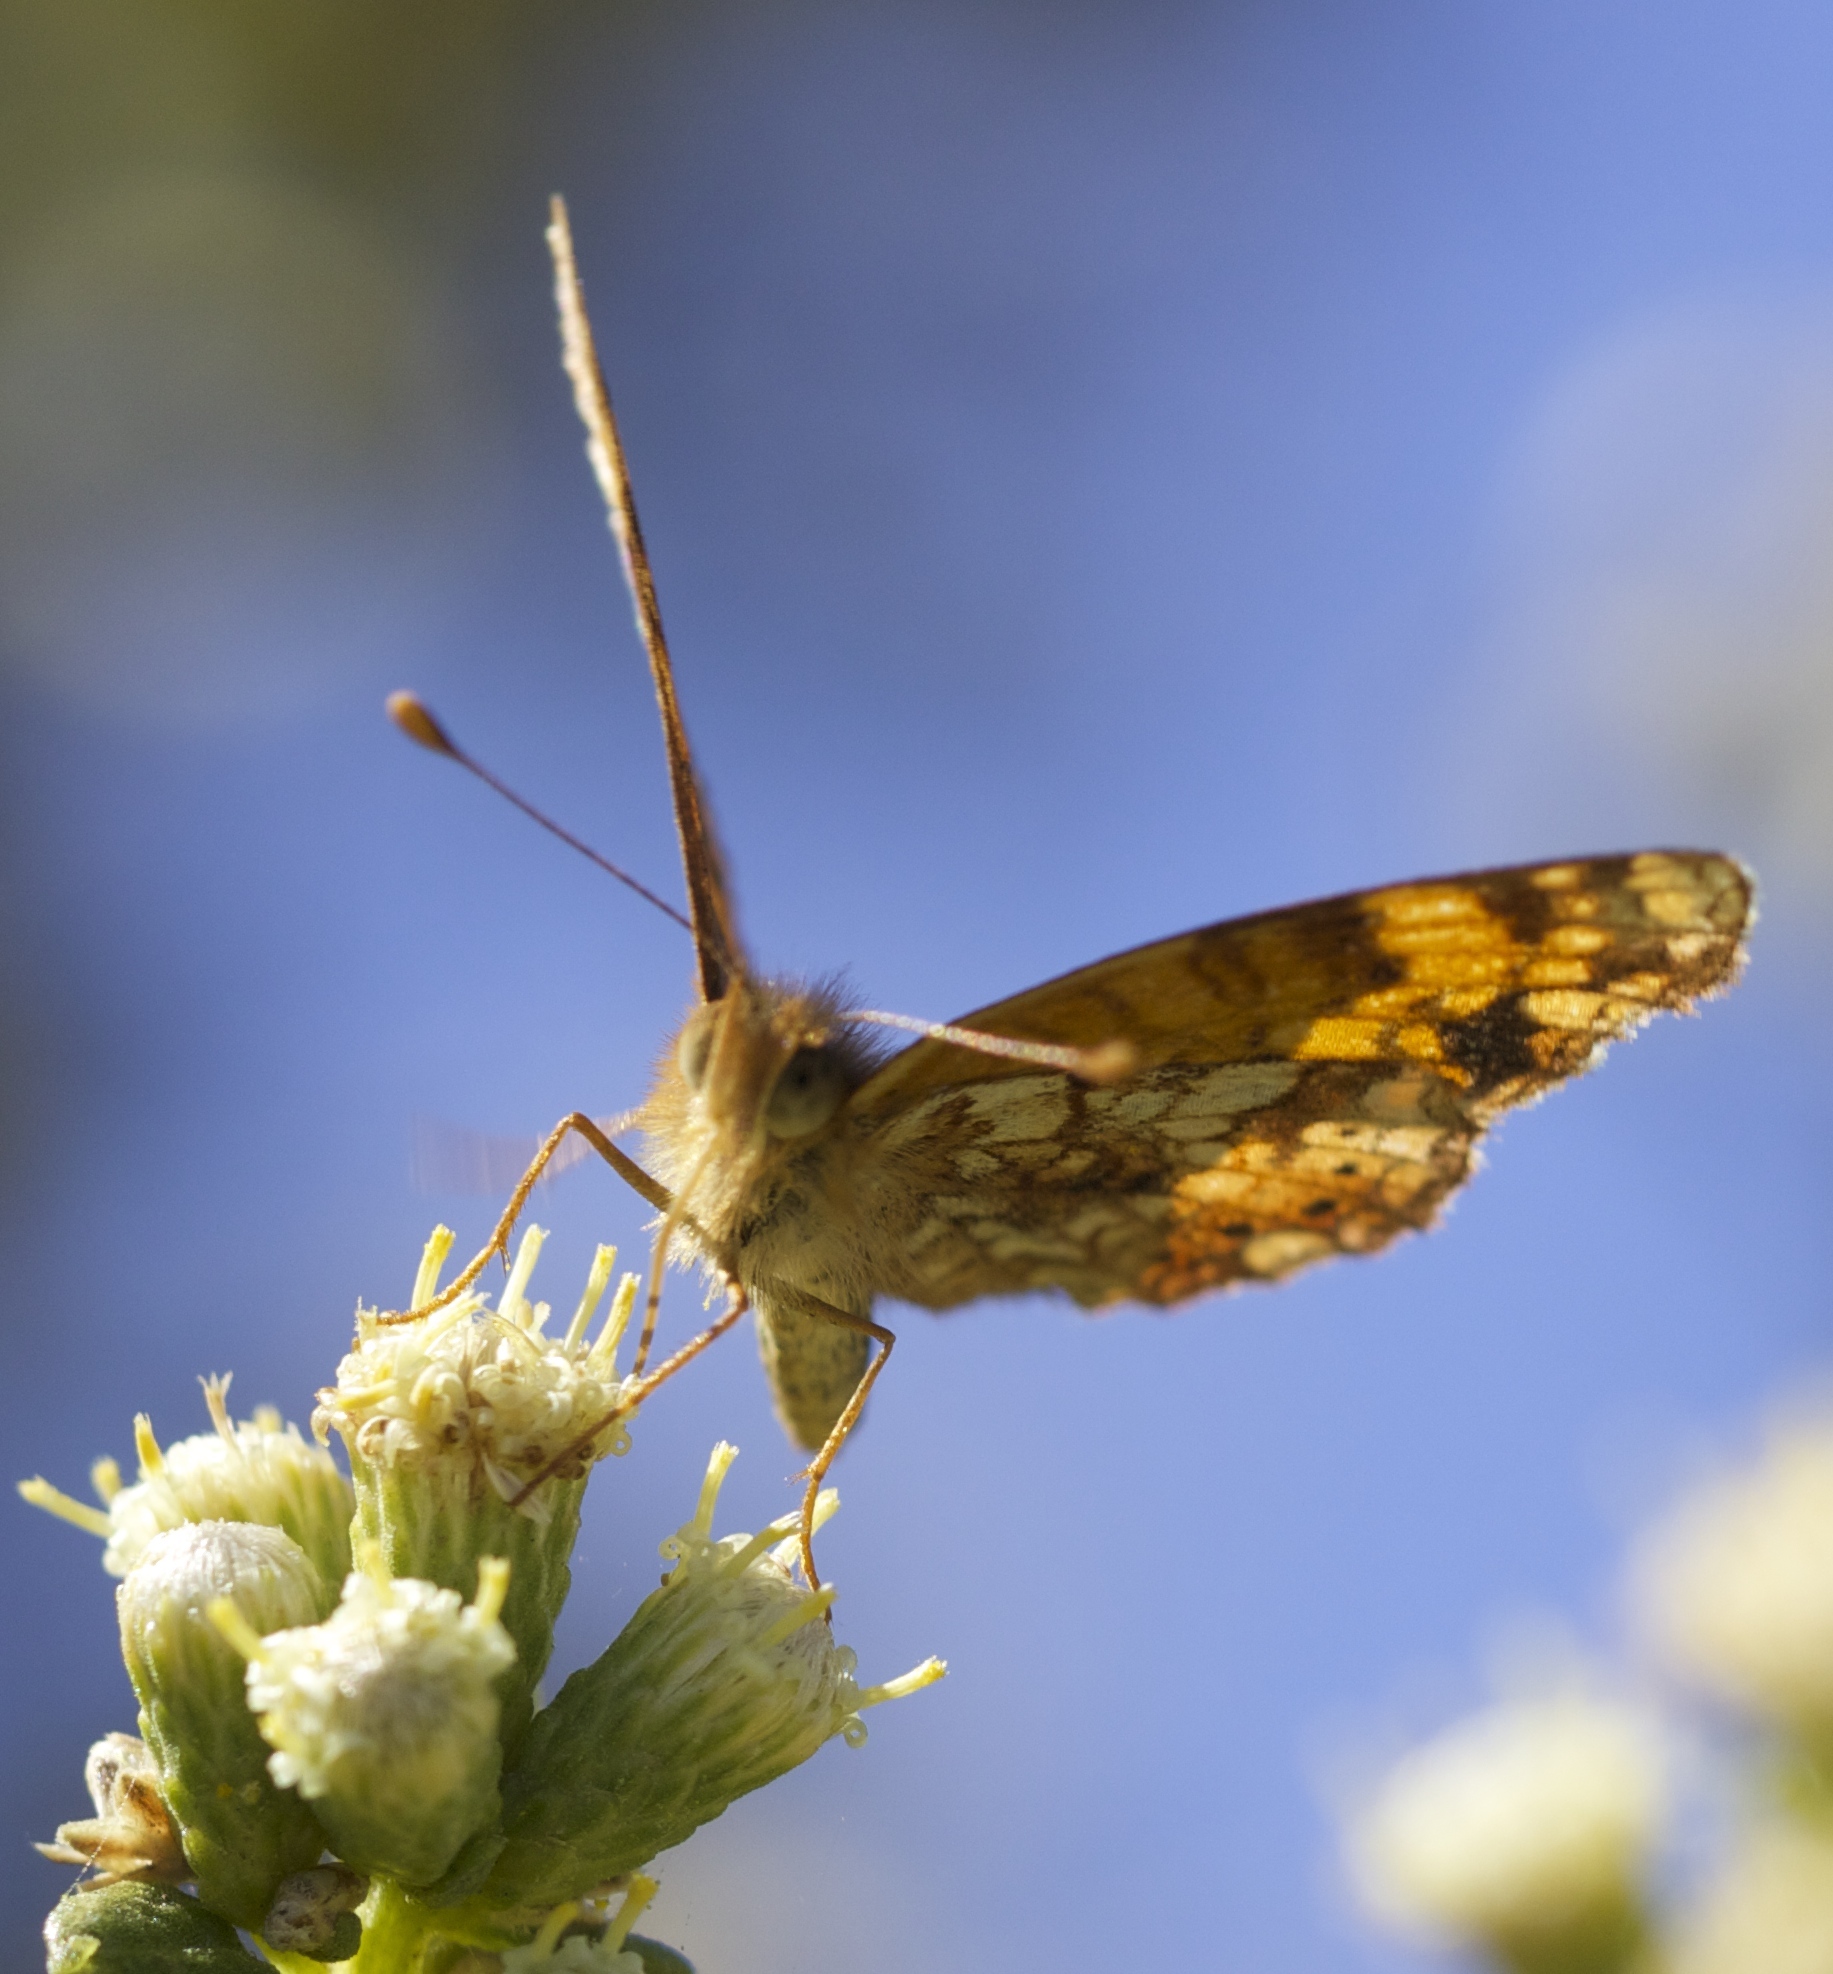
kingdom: Animalia
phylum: Arthropoda
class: Insecta
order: Lepidoptera
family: Nymphalidae
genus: Eresia
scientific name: Eresia aveyrona
